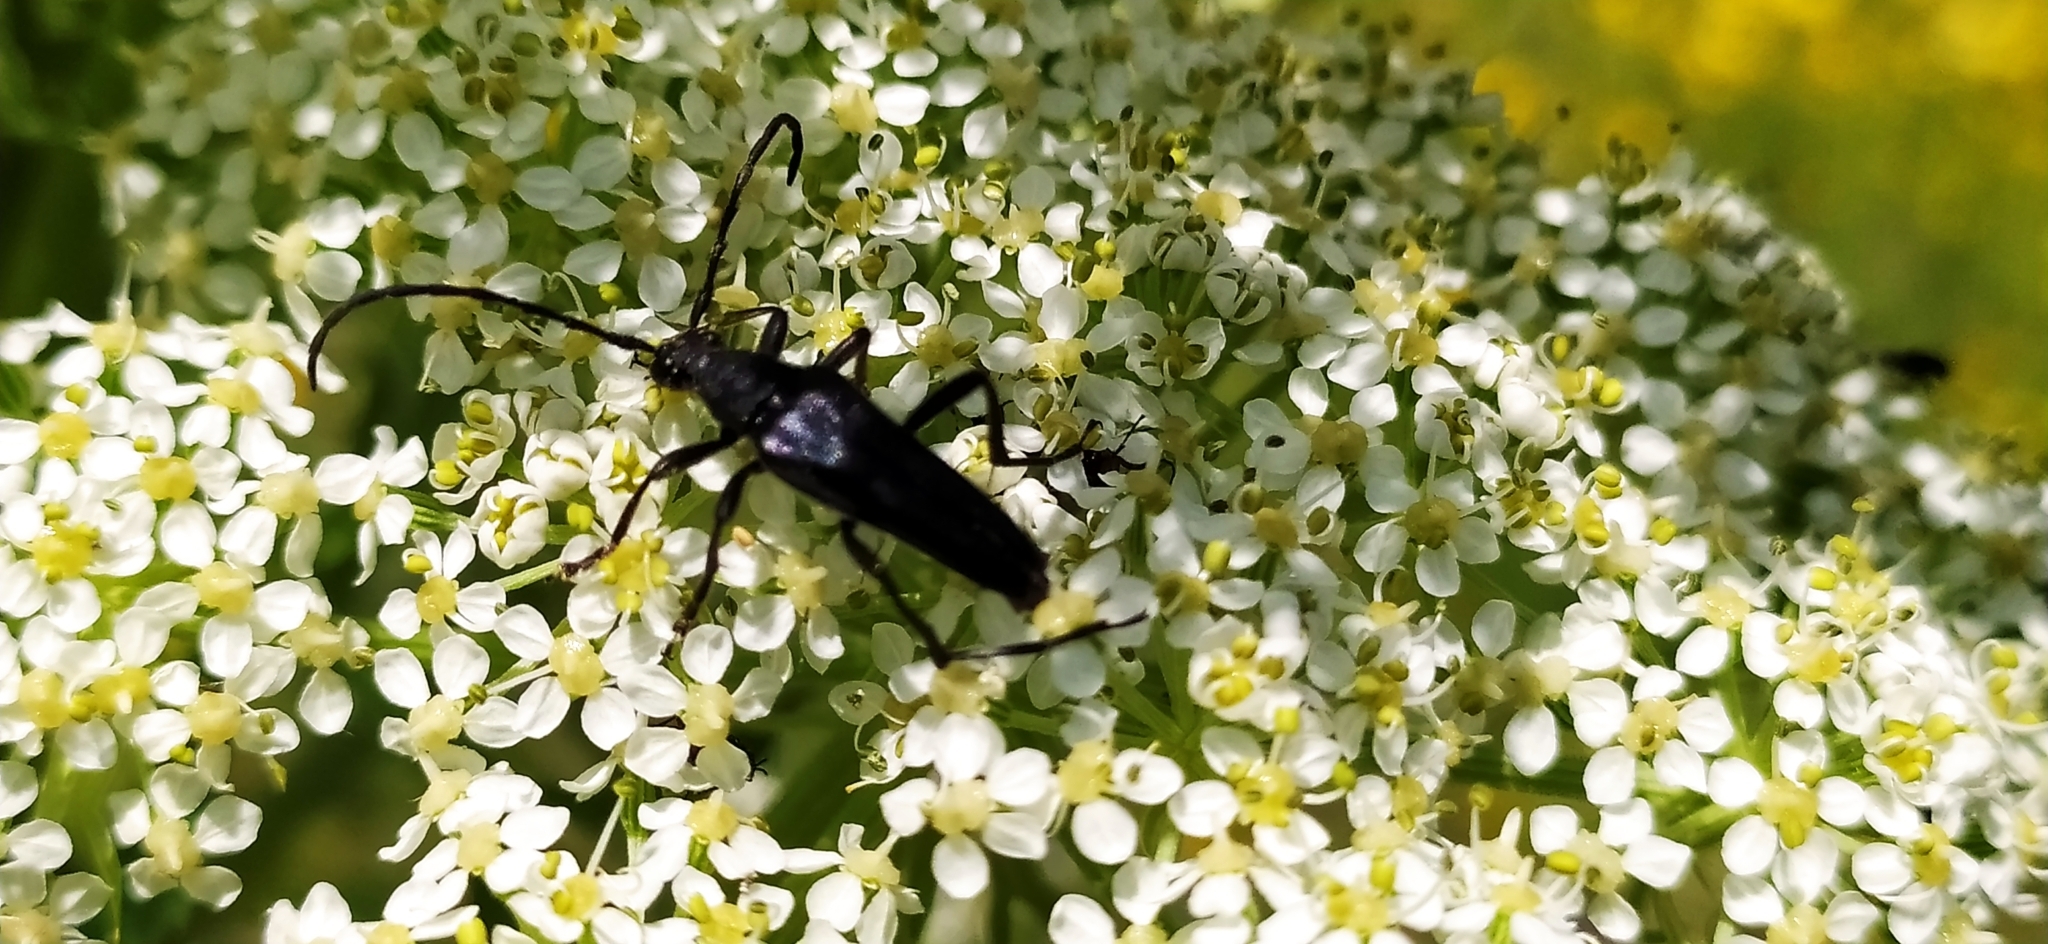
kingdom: Animalia
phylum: Arthropoda
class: Insecta
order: Coleoptera
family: Cerambycidae
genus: Leptura
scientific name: Leptura aethiops
